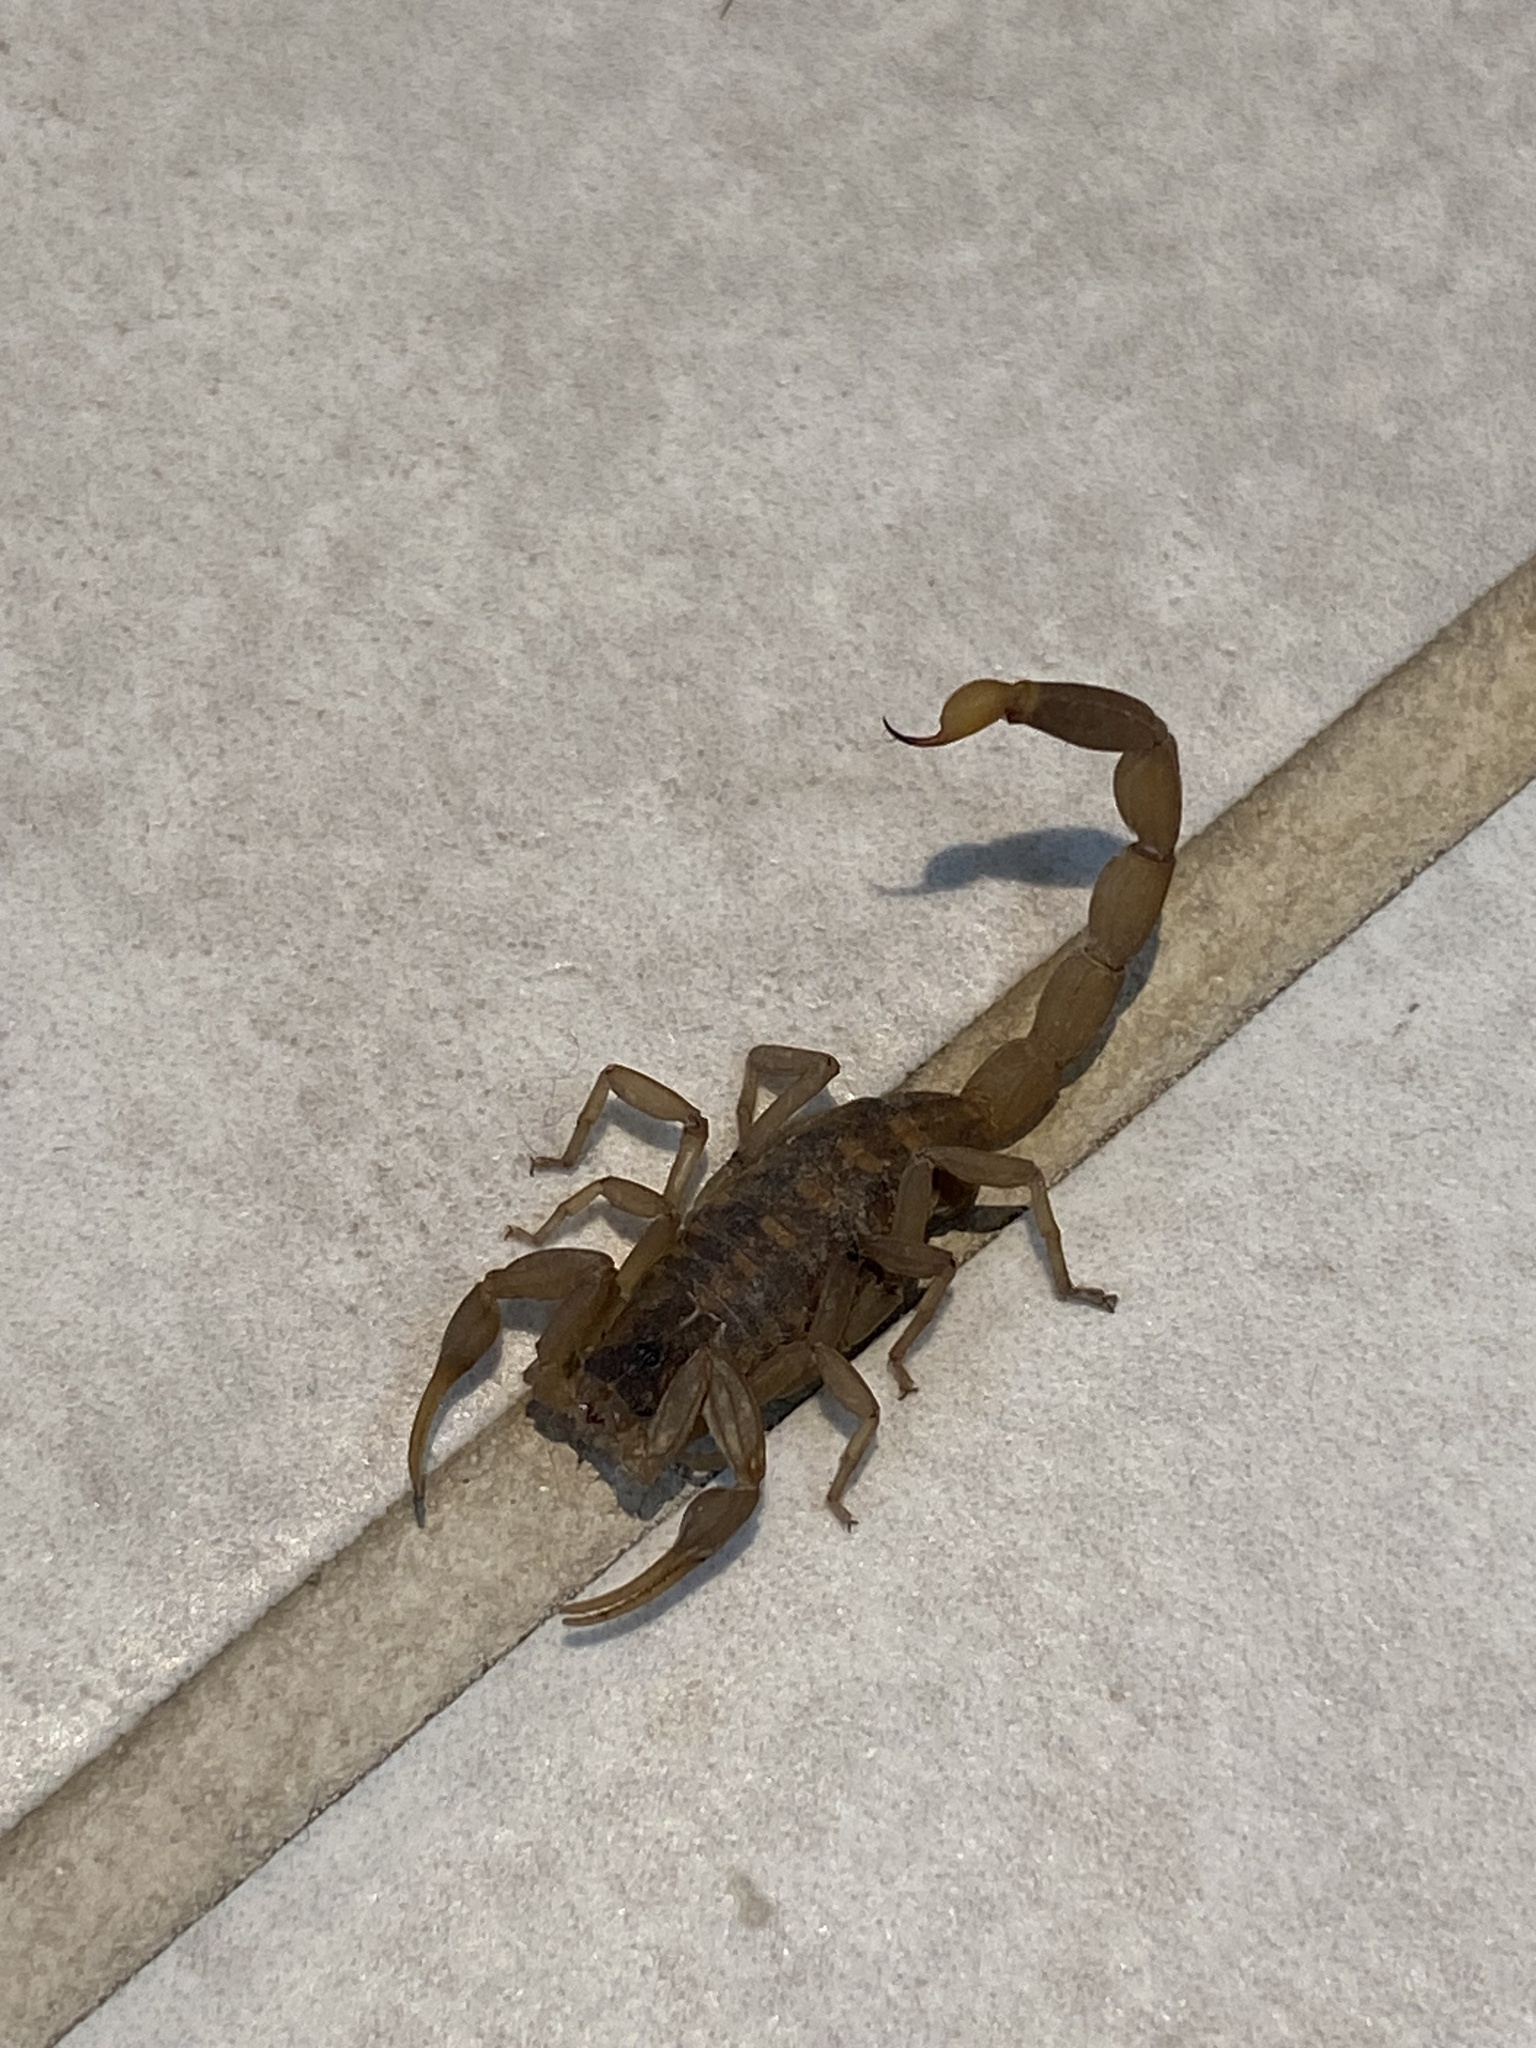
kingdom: Animalia
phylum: Arthropoda
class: Arachnida
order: Scorpiones
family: Buthidae
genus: Centruroides
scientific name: Centruroides vittatus
